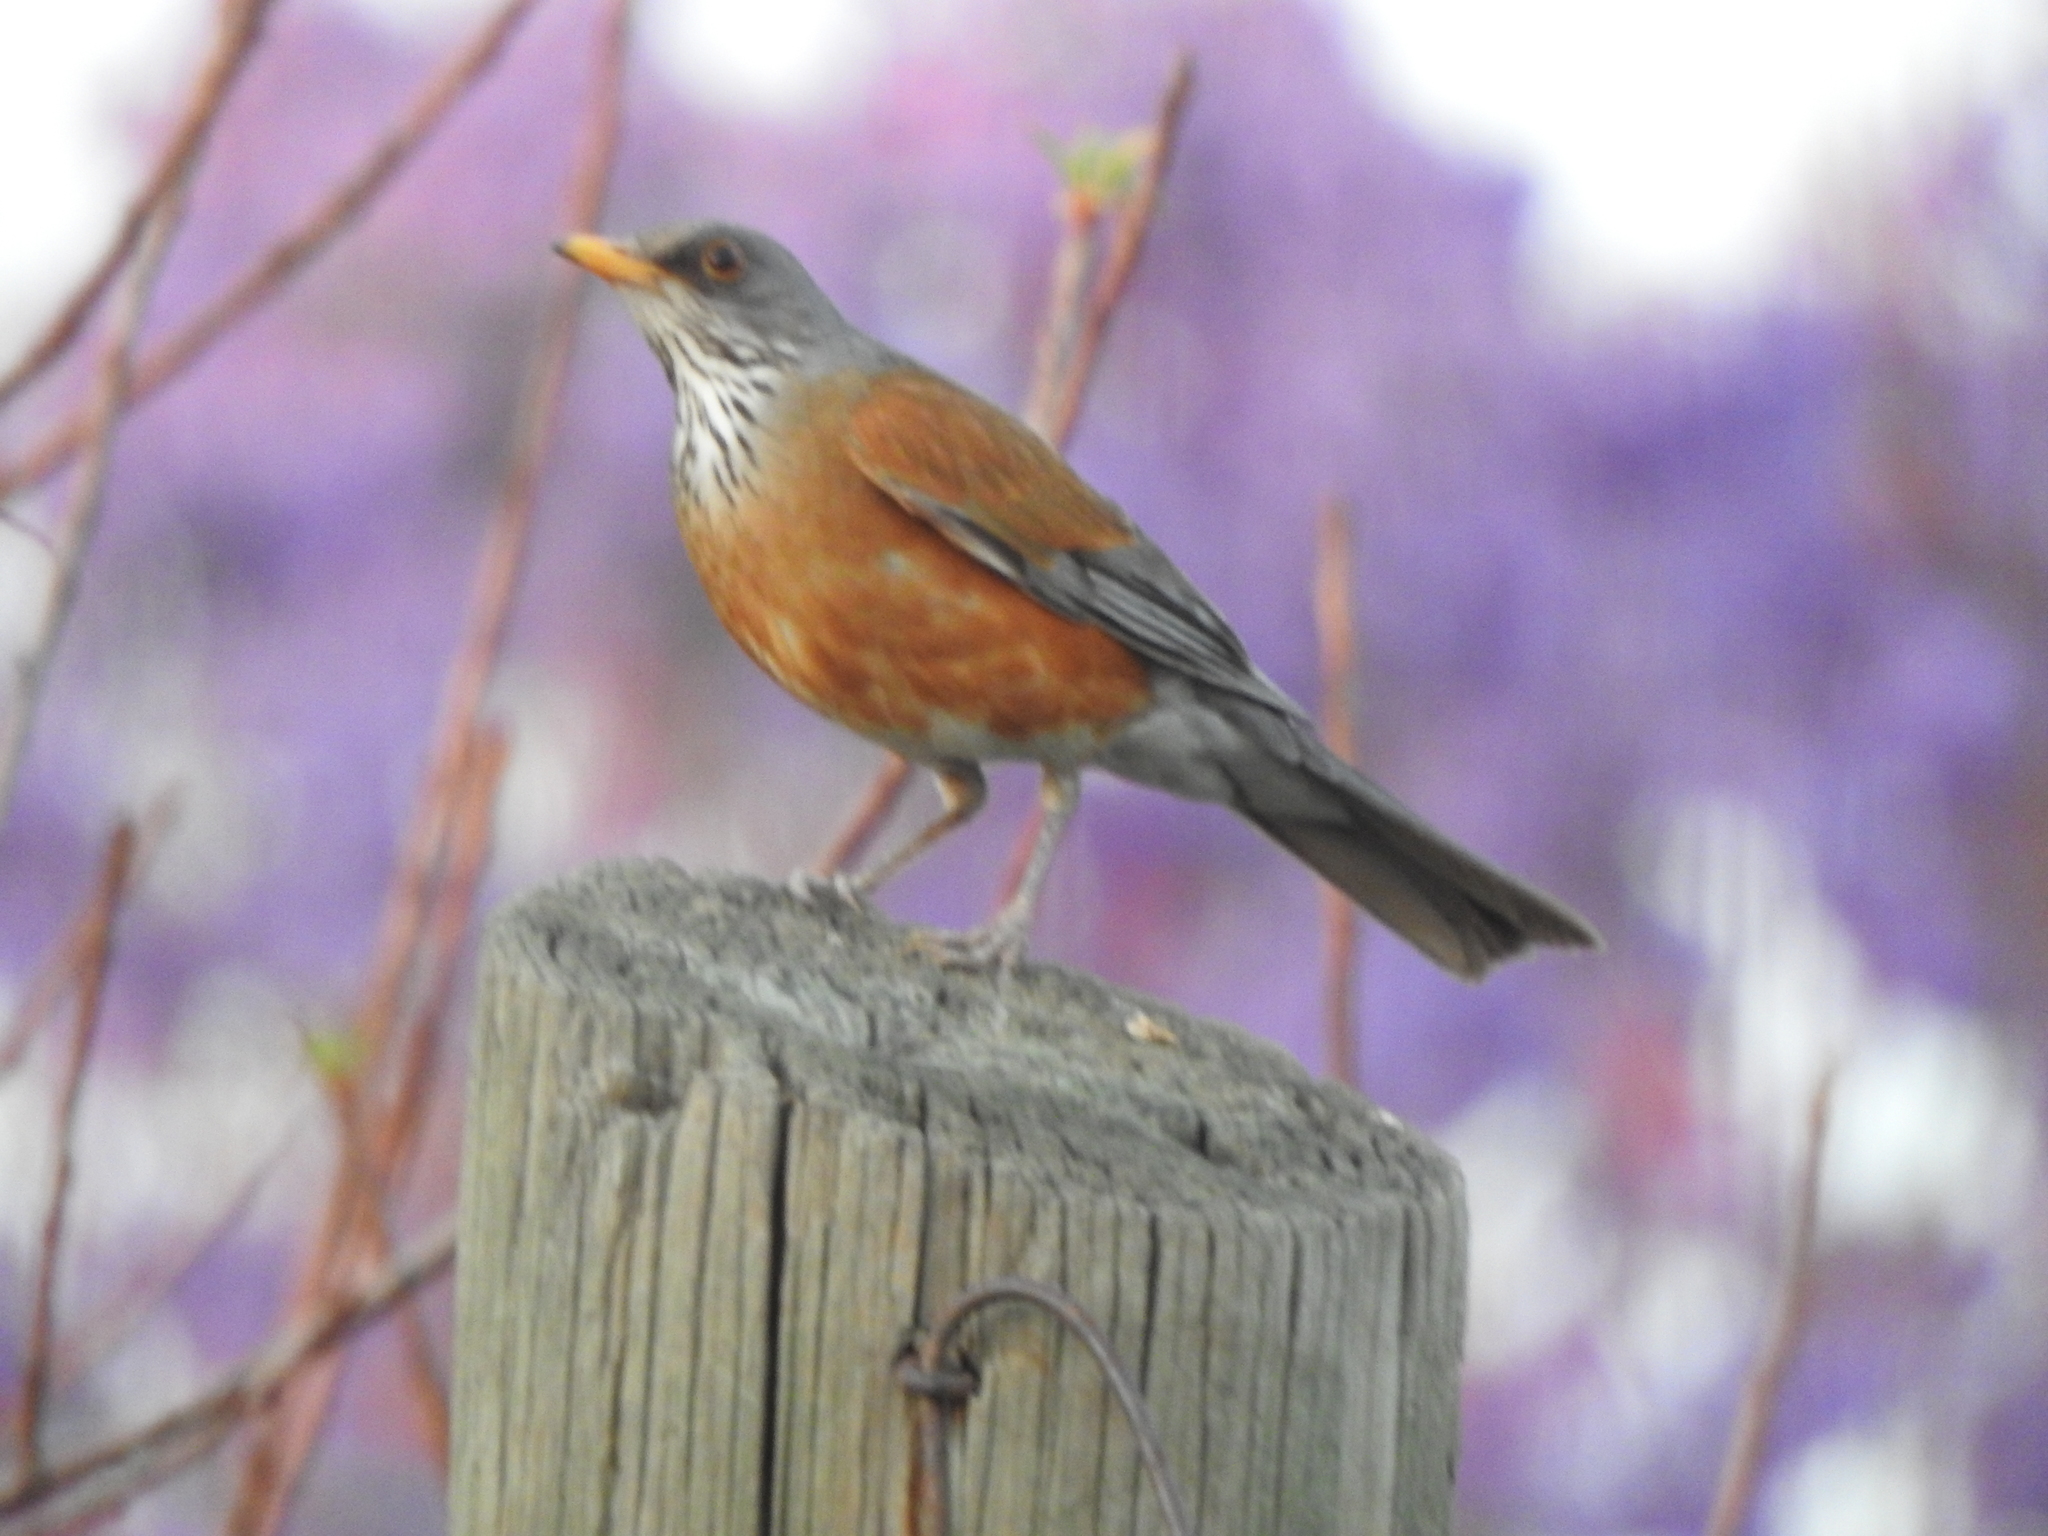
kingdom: Animalia
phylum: Chordata
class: Aves
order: Passeriformes
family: Turdidae
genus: Turdus
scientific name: Turdus rufopalliatus
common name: Rufous-backed robin
